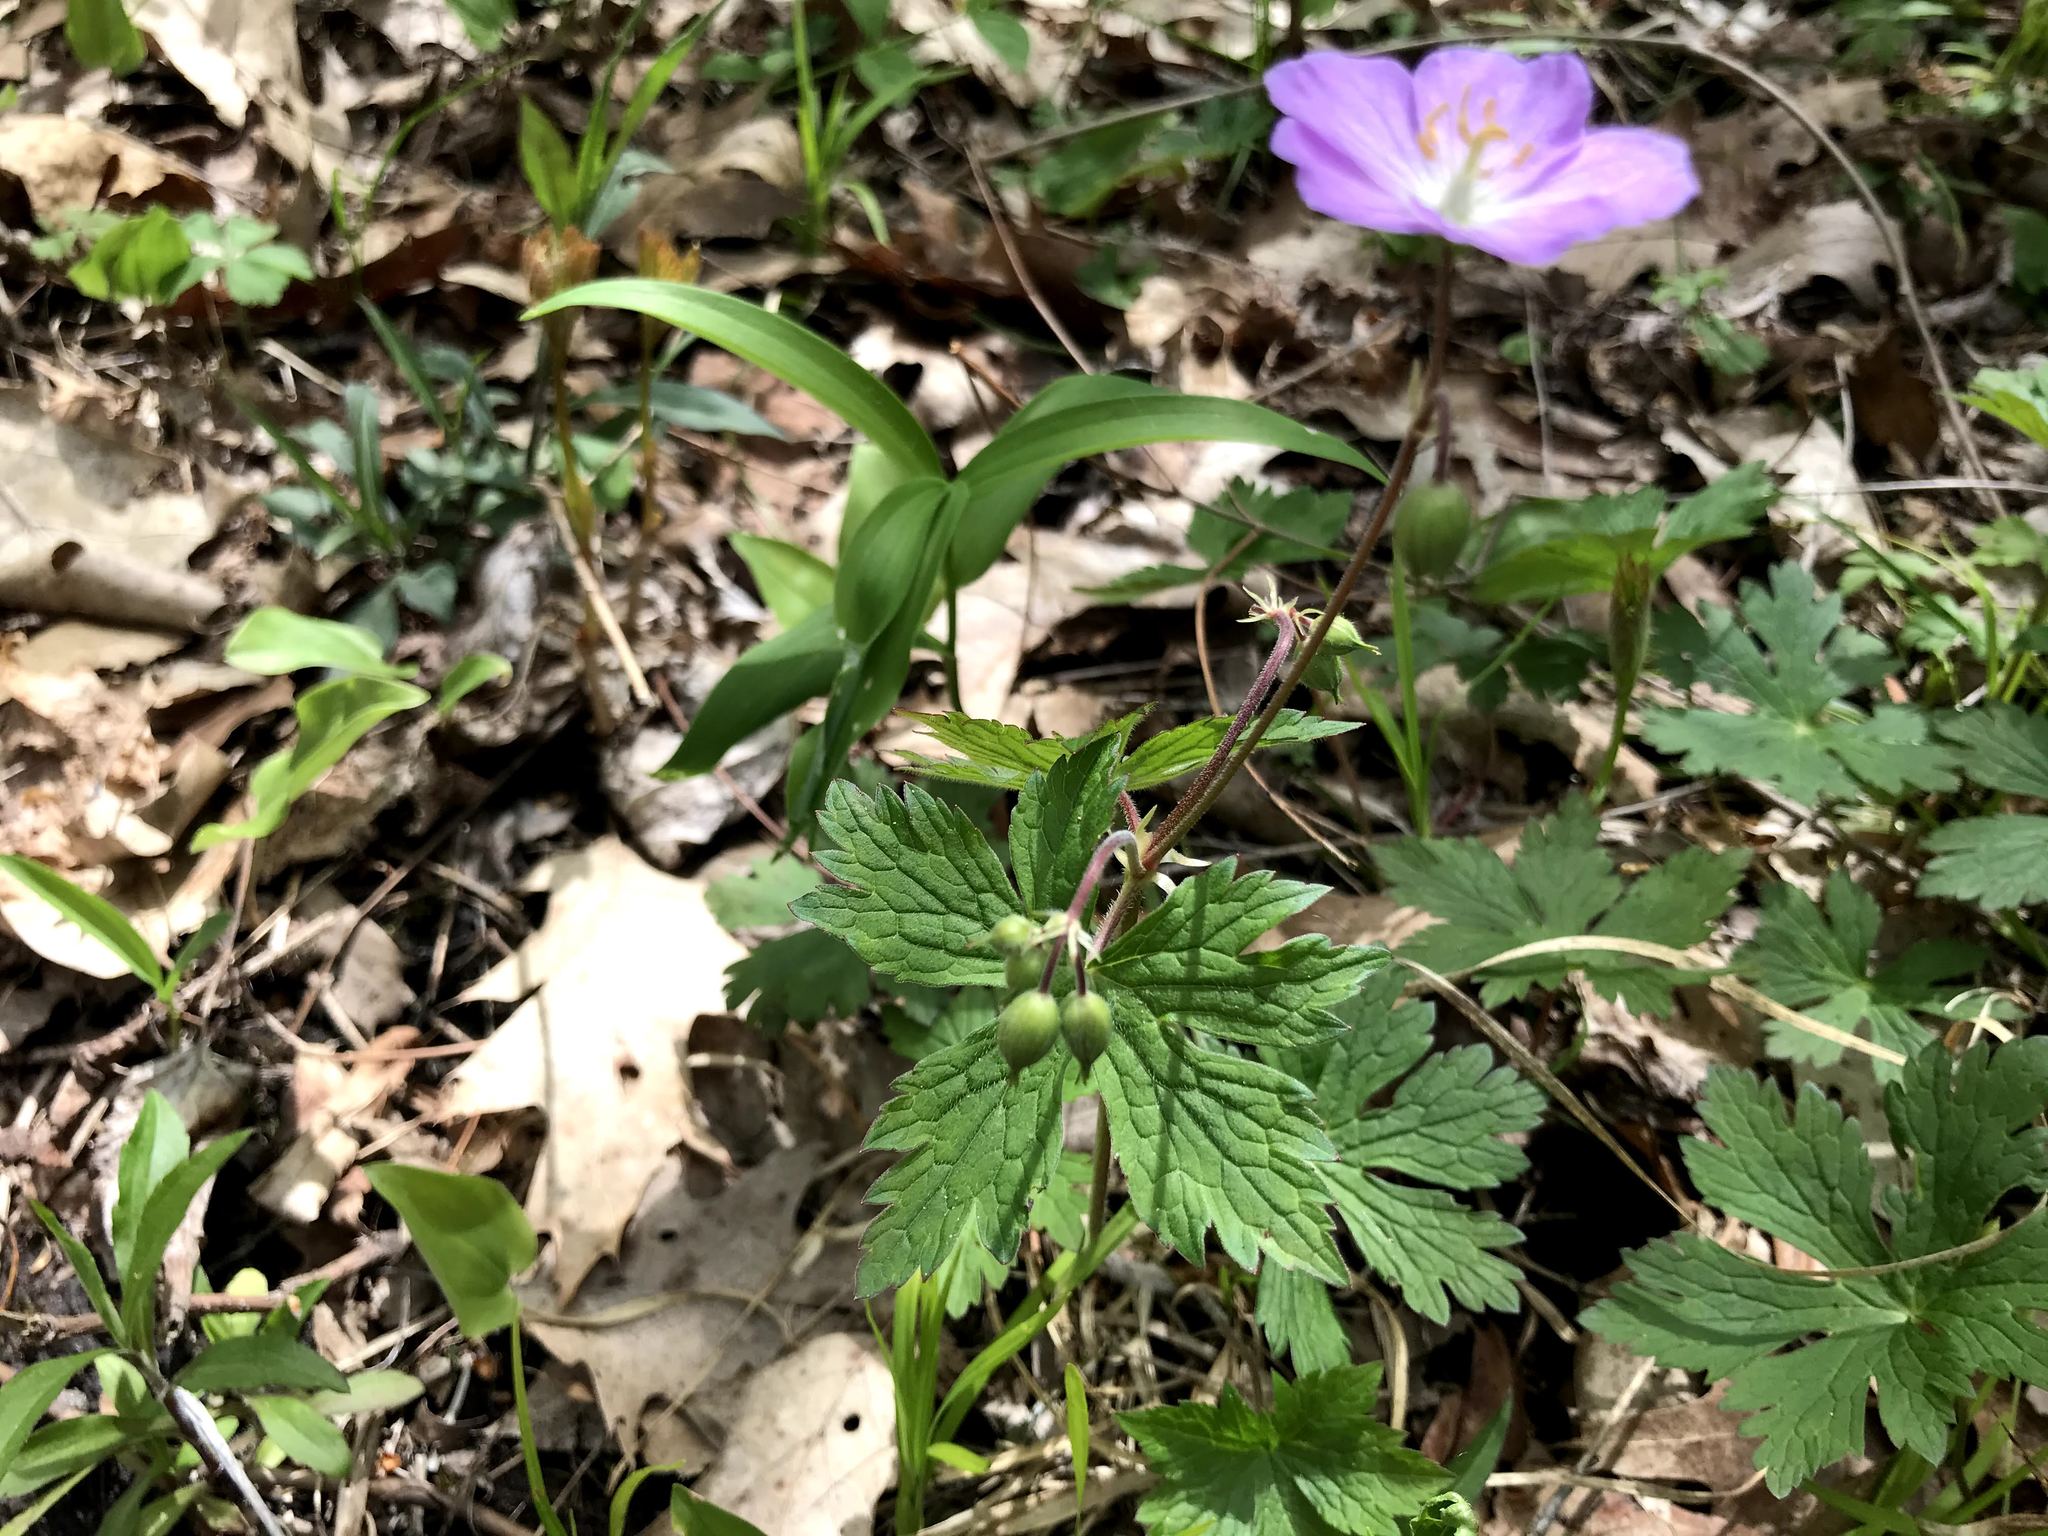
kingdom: Plantae
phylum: Tracheophyta
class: Magnoliopsida
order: Geraniales
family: Geraniaceae
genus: Geranium
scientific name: Geranium maculatum
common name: Spotted geranium
